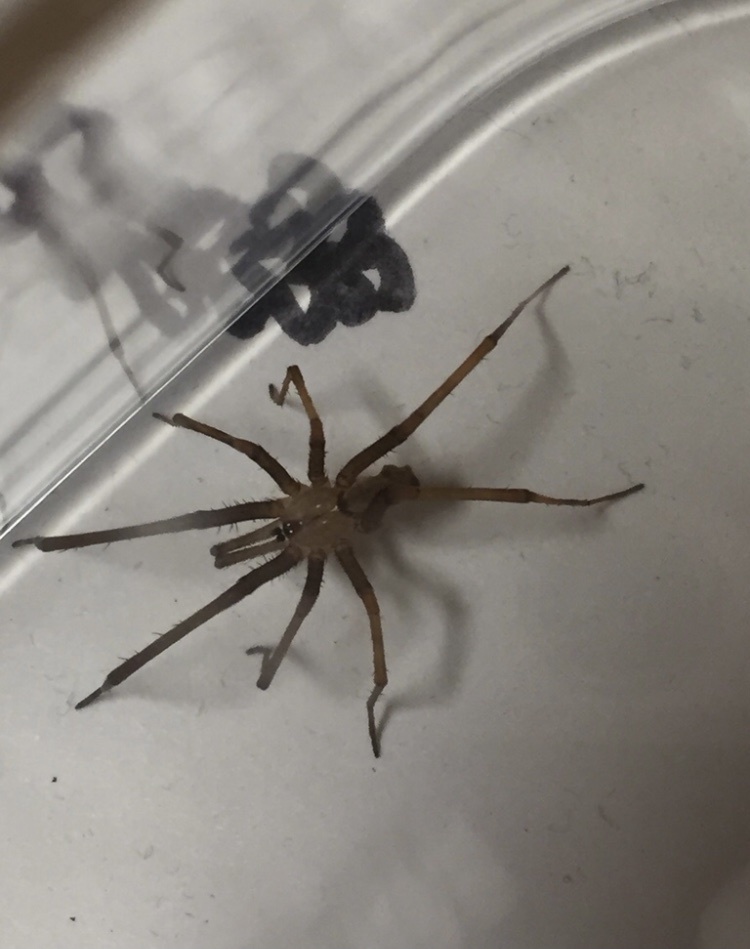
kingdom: Animalia
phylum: Arthropoda
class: Arachnida
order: Araneae
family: Filistatidae
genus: Kukulcania
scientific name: Kukulcania hibernalis
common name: Crevice weaver
